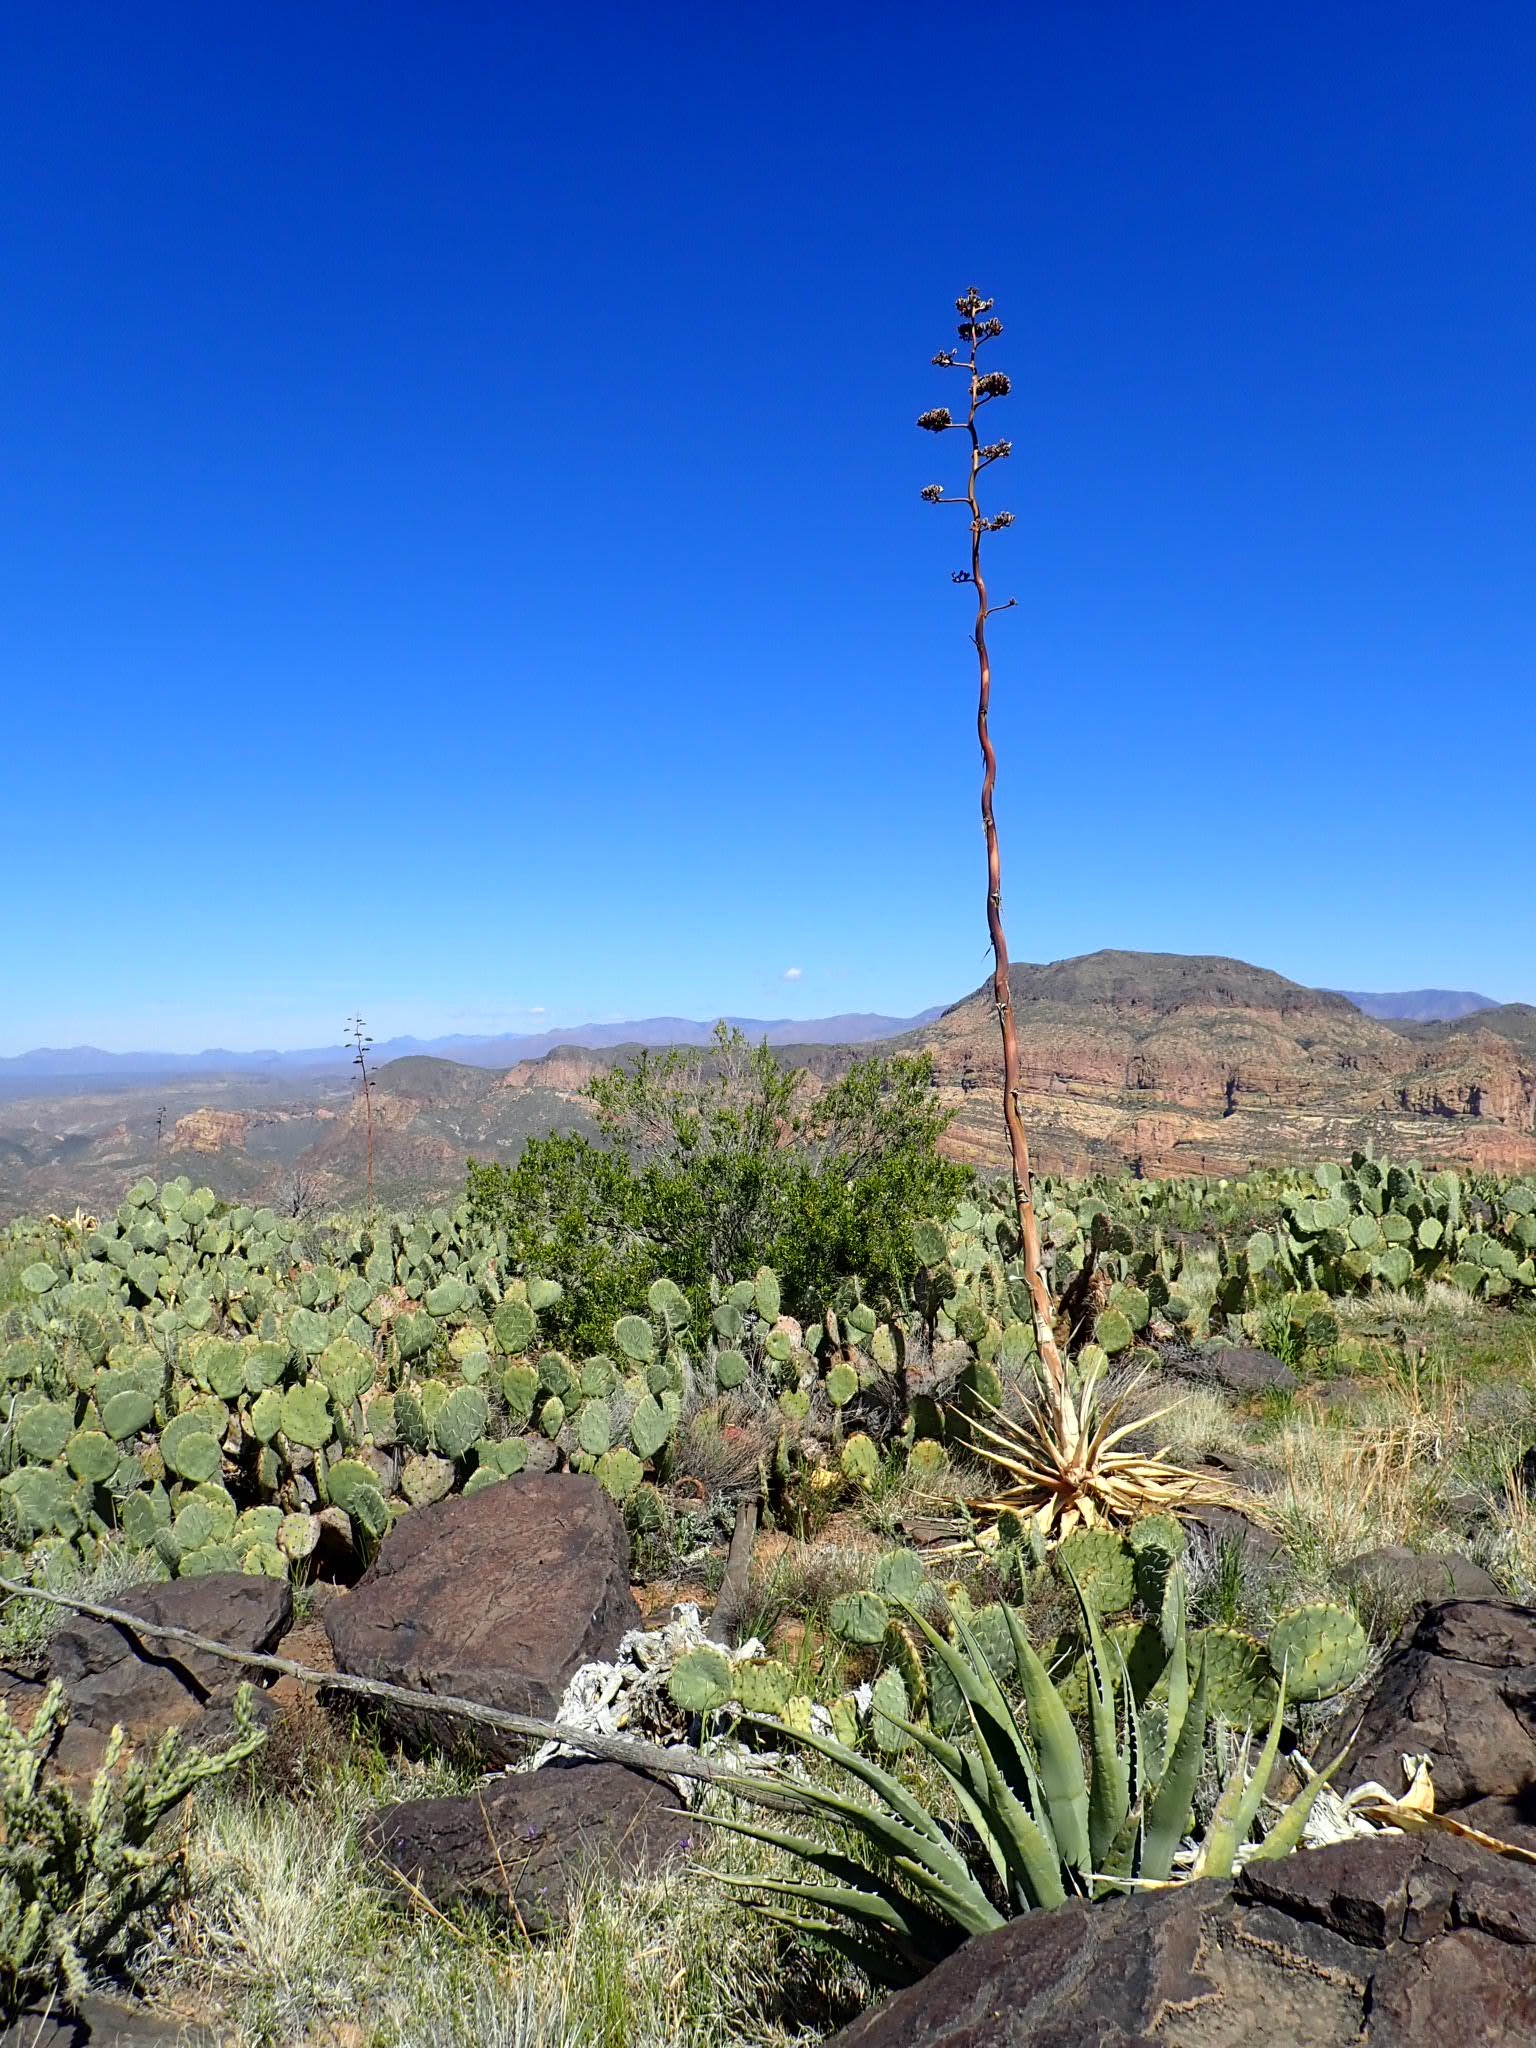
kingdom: Plantae
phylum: Tracheophyta
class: Liliopsida
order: Asparagales
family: Asparagaceae
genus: Agave
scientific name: Agave chrysantha
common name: Golden-flowered agave
